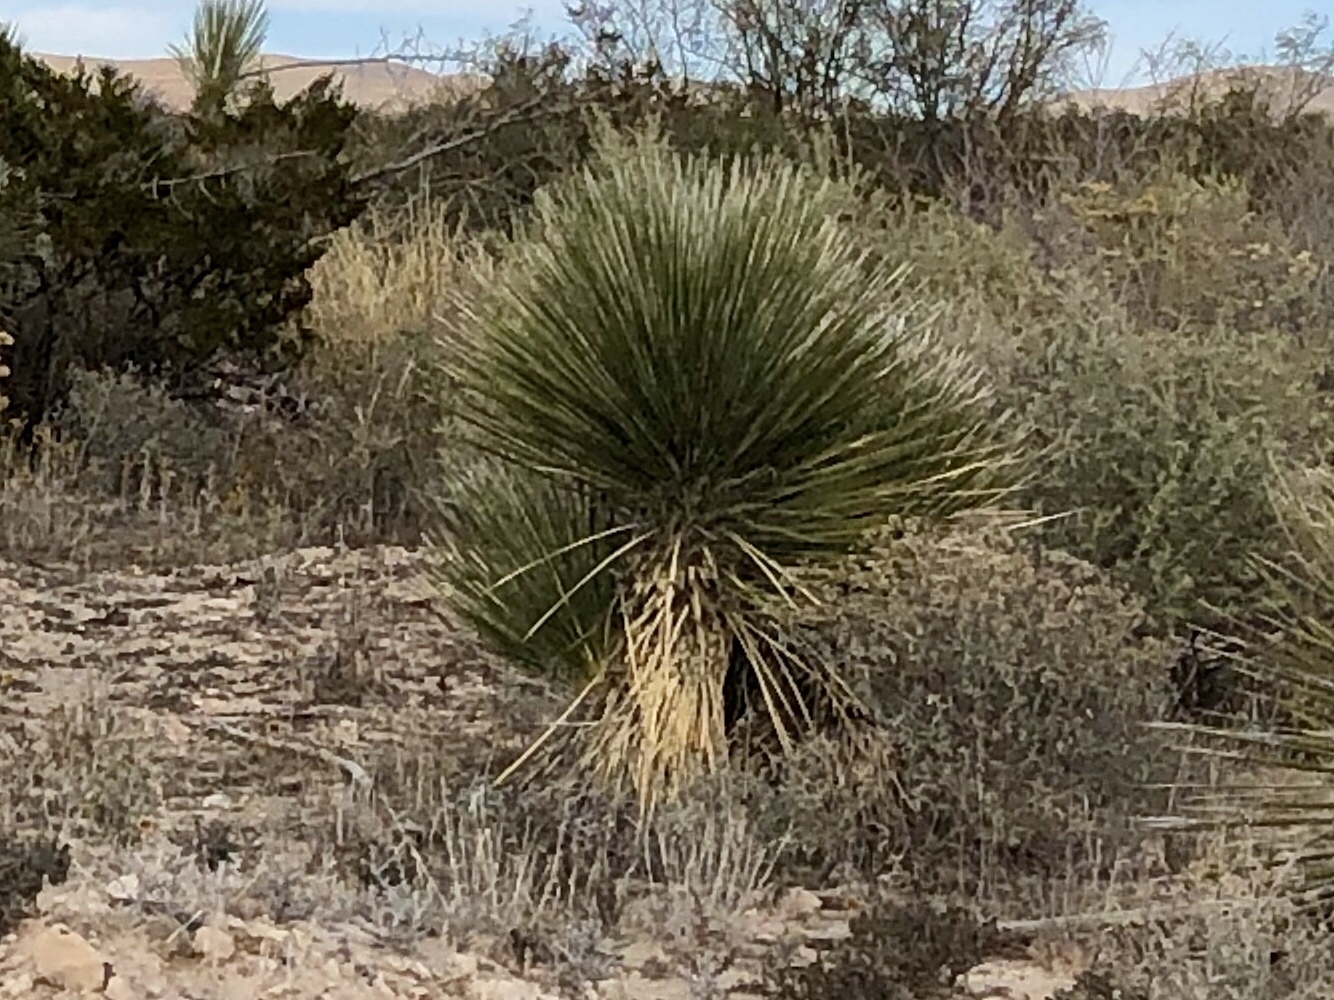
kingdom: Plantae
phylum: Tracheophyta
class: Liliopsida
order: Asparagales
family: Asparagaceae
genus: Yucca
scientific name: Yucca elata
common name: Palmella
